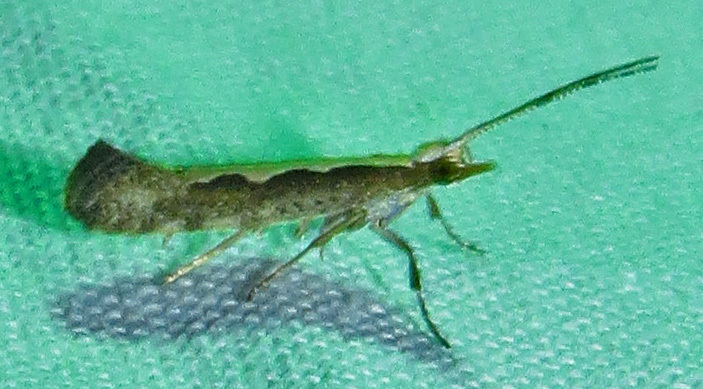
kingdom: Animalia
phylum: Arthropoda
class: Insecta
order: Lepidoptera
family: Plutellidae
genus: Plutella
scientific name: Plutella xylostella
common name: Diamond-back moth
